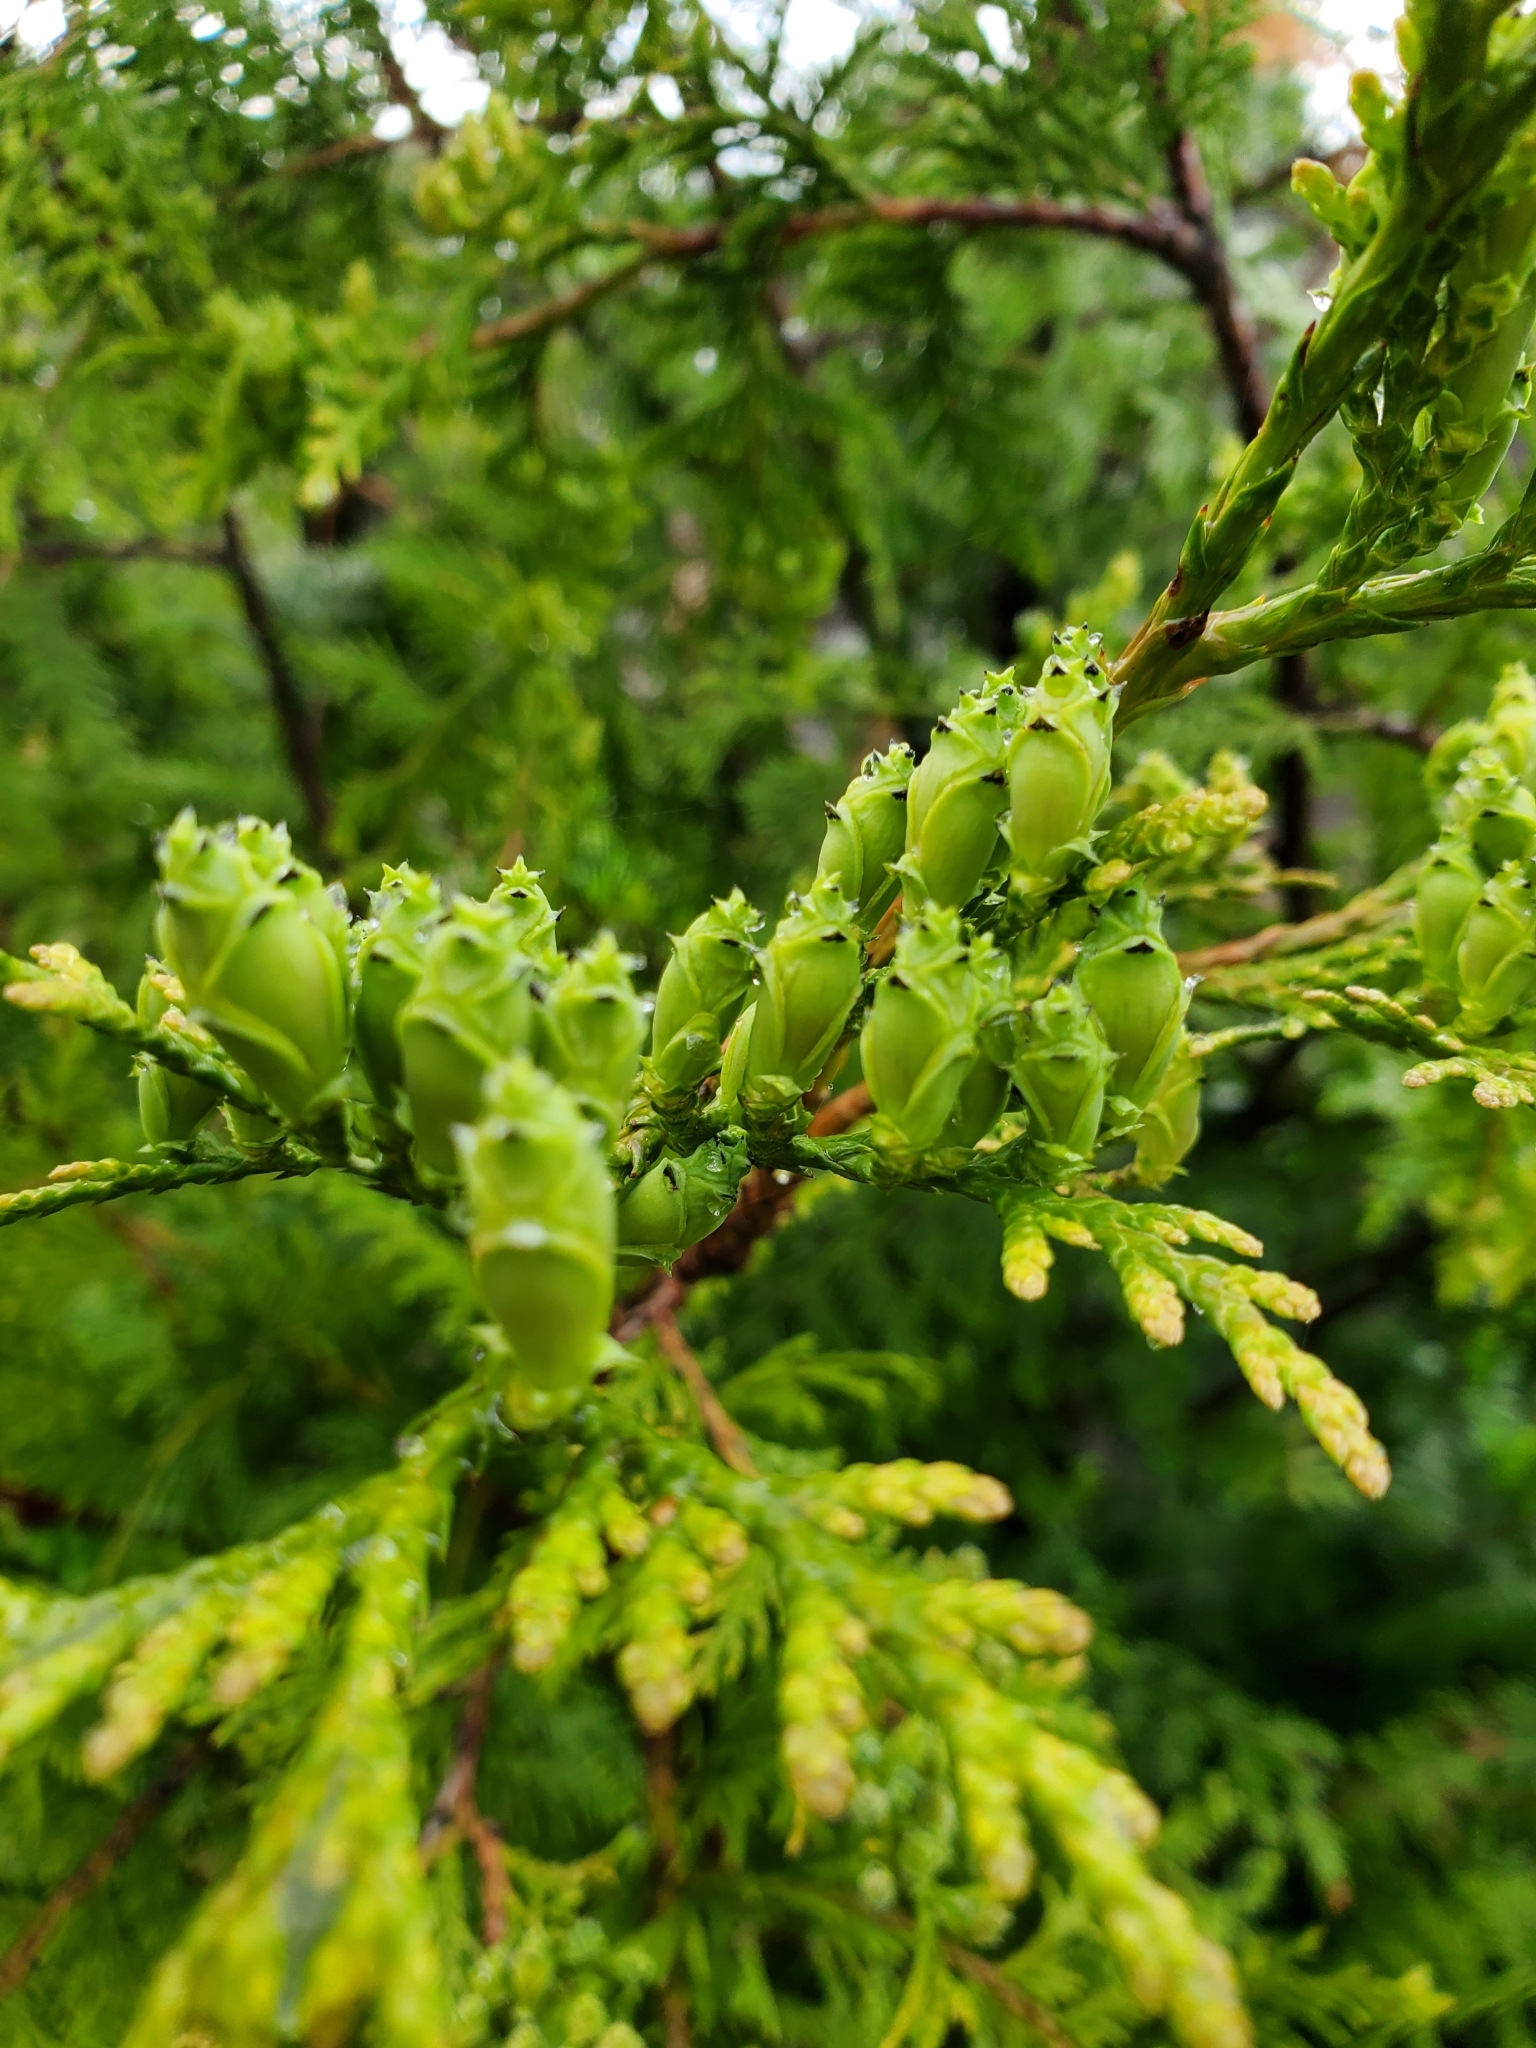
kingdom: Plantae
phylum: Tracheophyta
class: Pinopsida
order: Pinales
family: Cupressaceae
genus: Thuja
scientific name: Thuja plicata
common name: Western red-cedar
